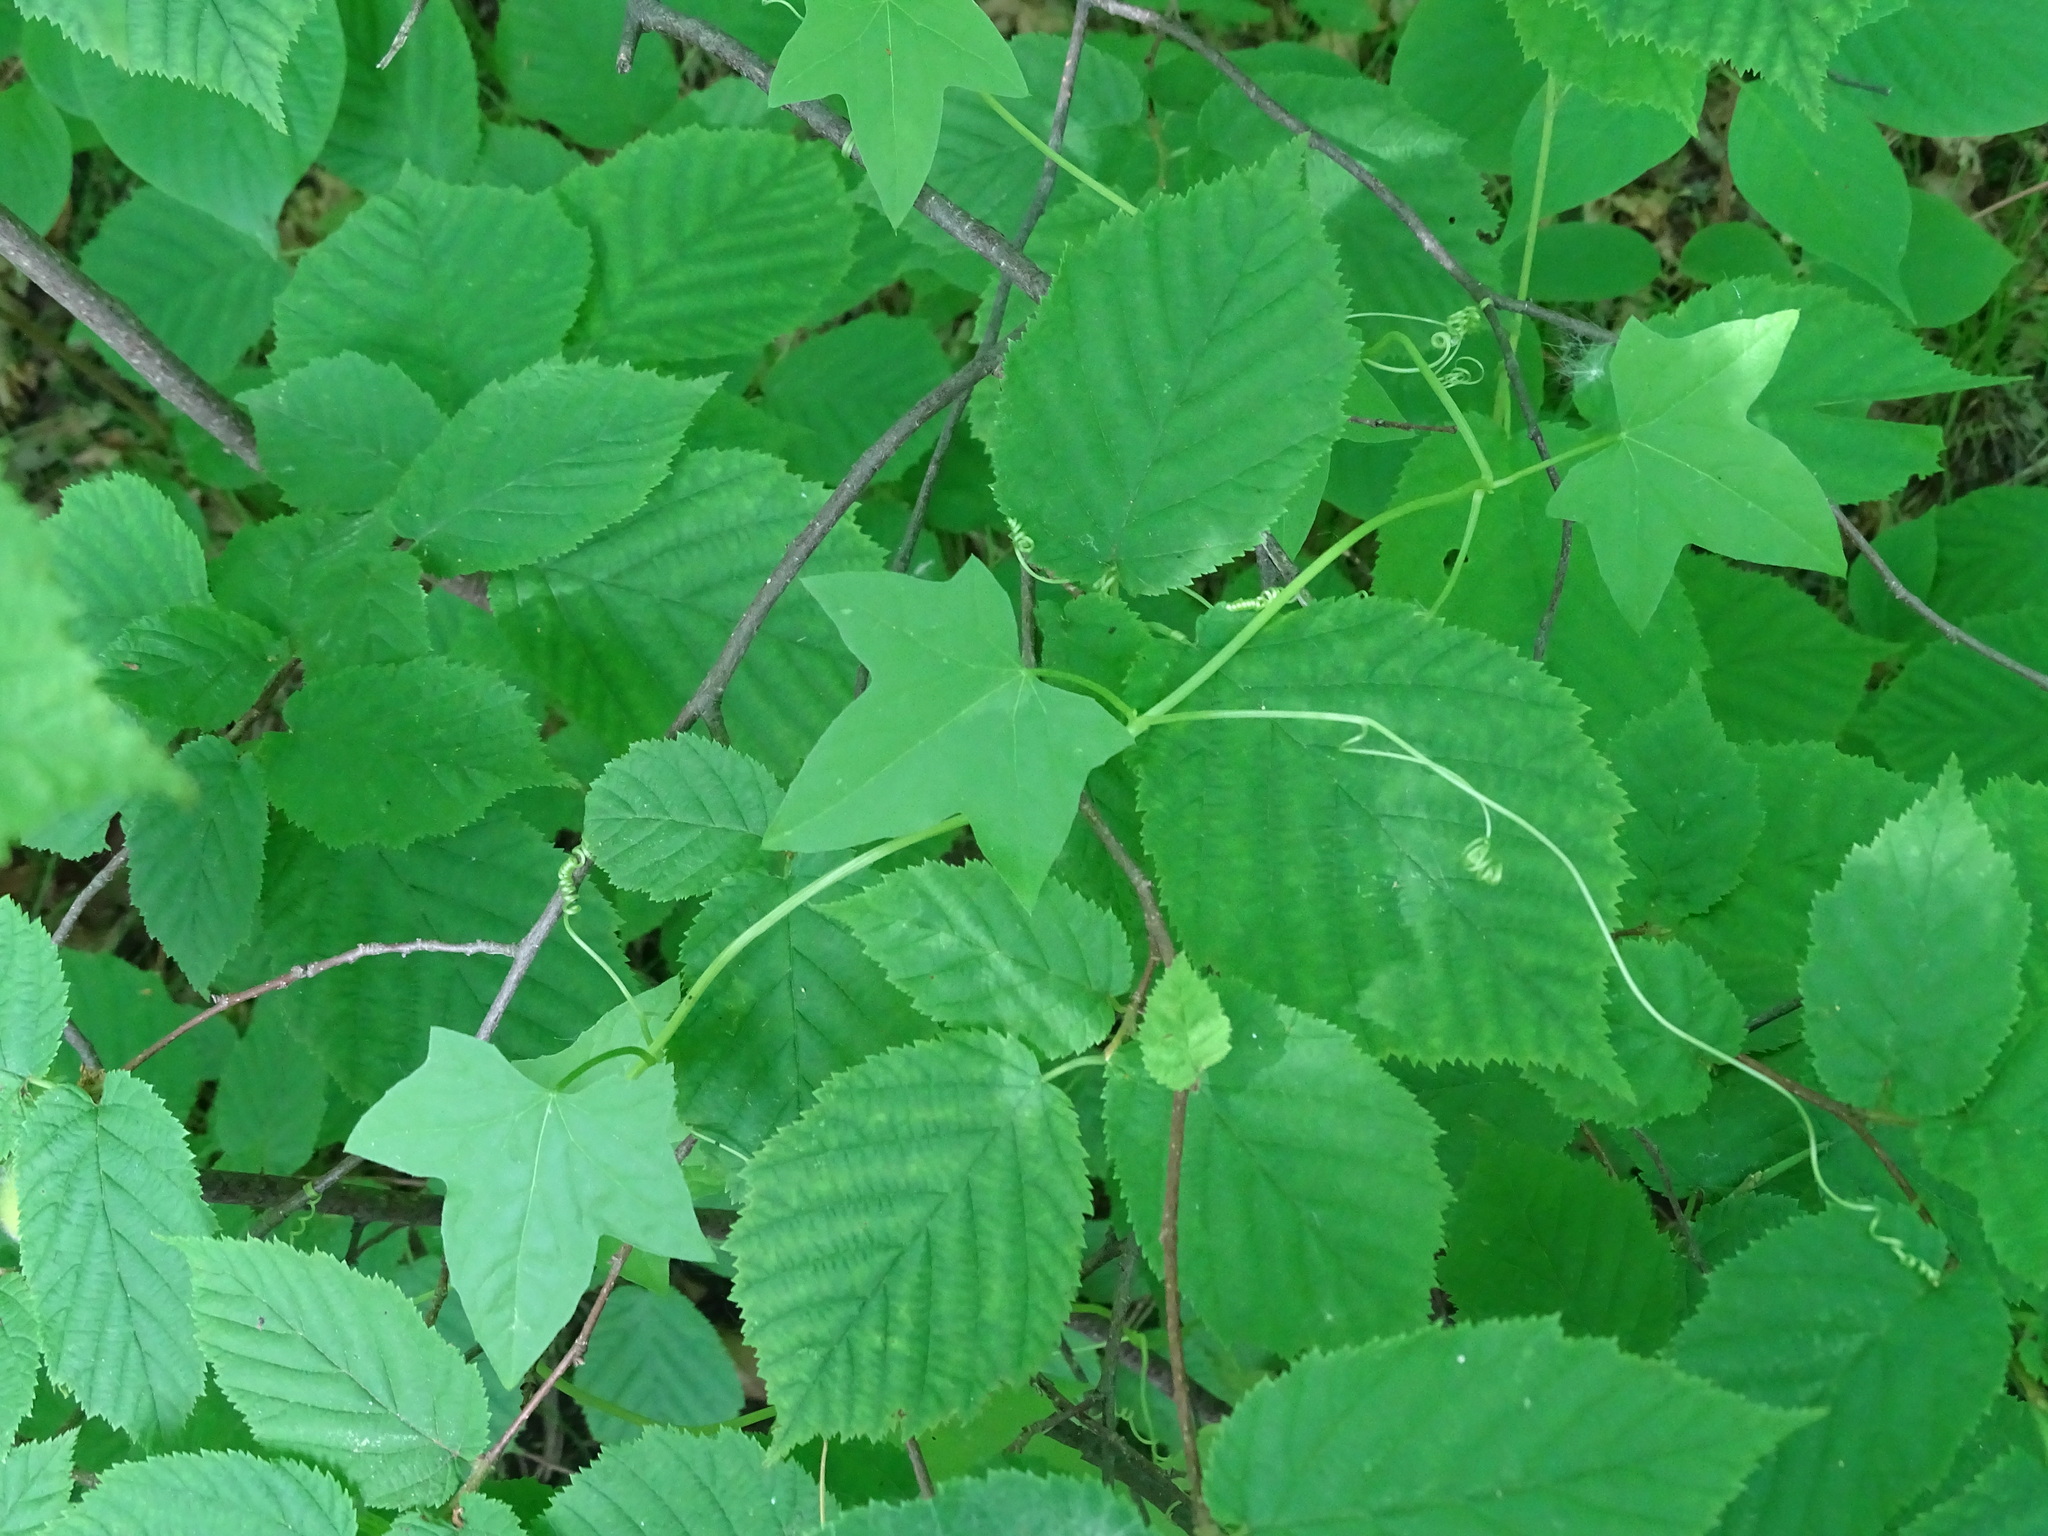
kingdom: Plantae
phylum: Tracheophyta
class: Magnoliopsida
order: Cucurbitales
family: Cucurbitaceae
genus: Echinocystis
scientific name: Echinocystis lobata
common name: Wild cucumber
